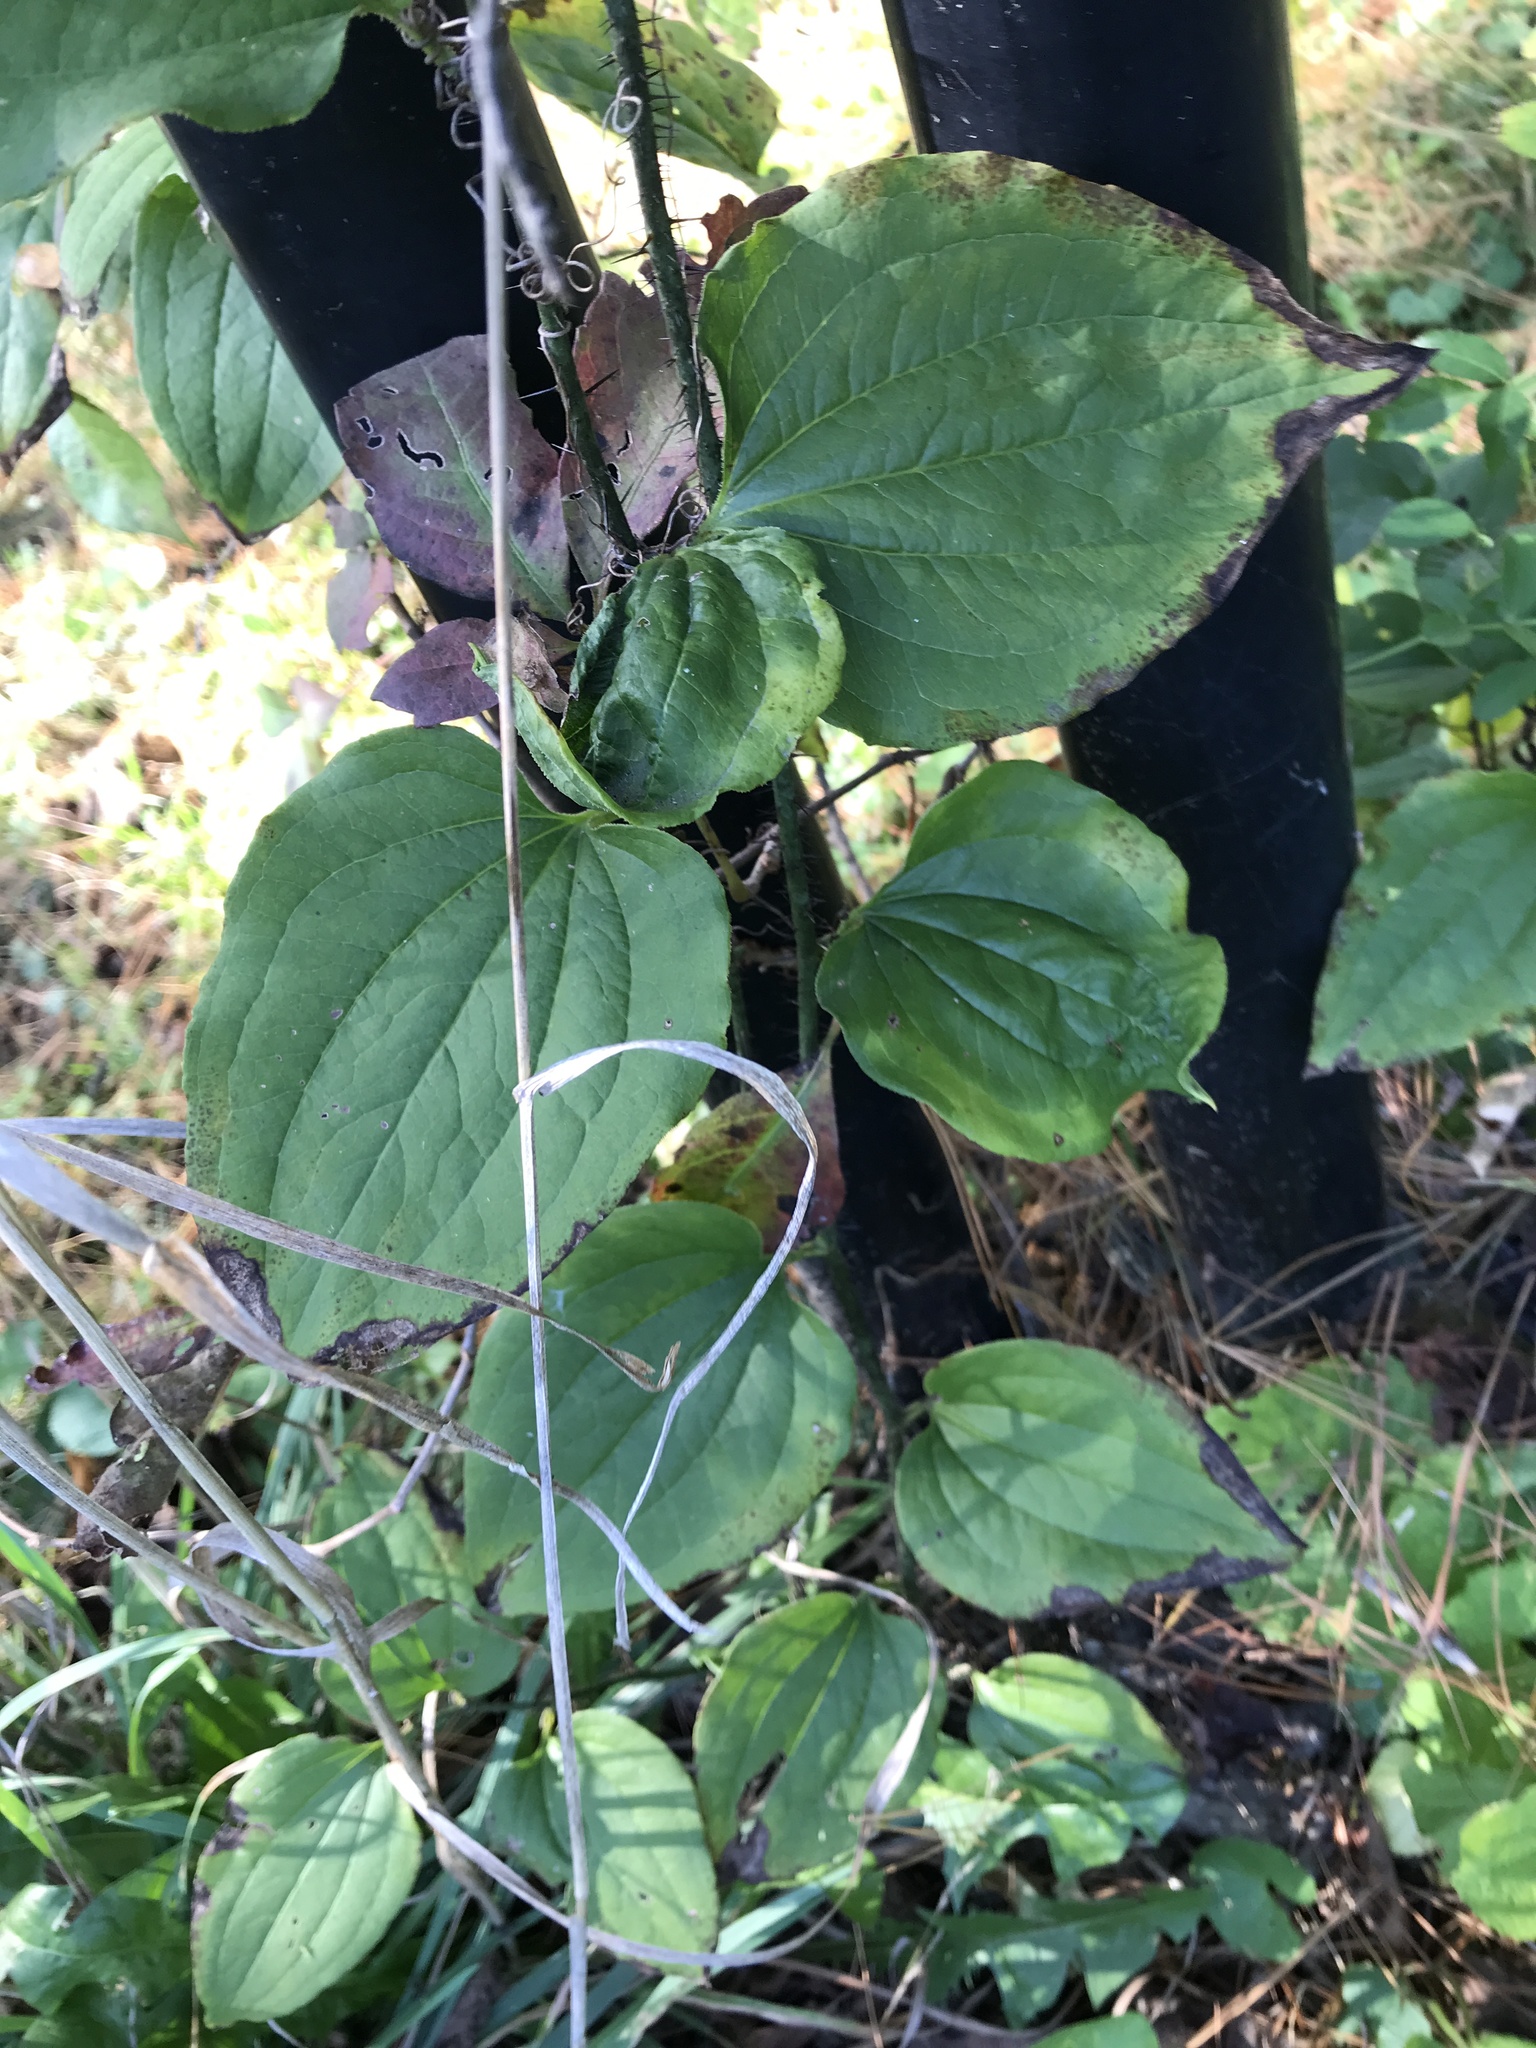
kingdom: Plantae
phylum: Tracheophyta
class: Liliopsida
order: Liliales
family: Smilacaceae
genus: Smilax
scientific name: Smilax tamnoides
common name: Hellfetter
